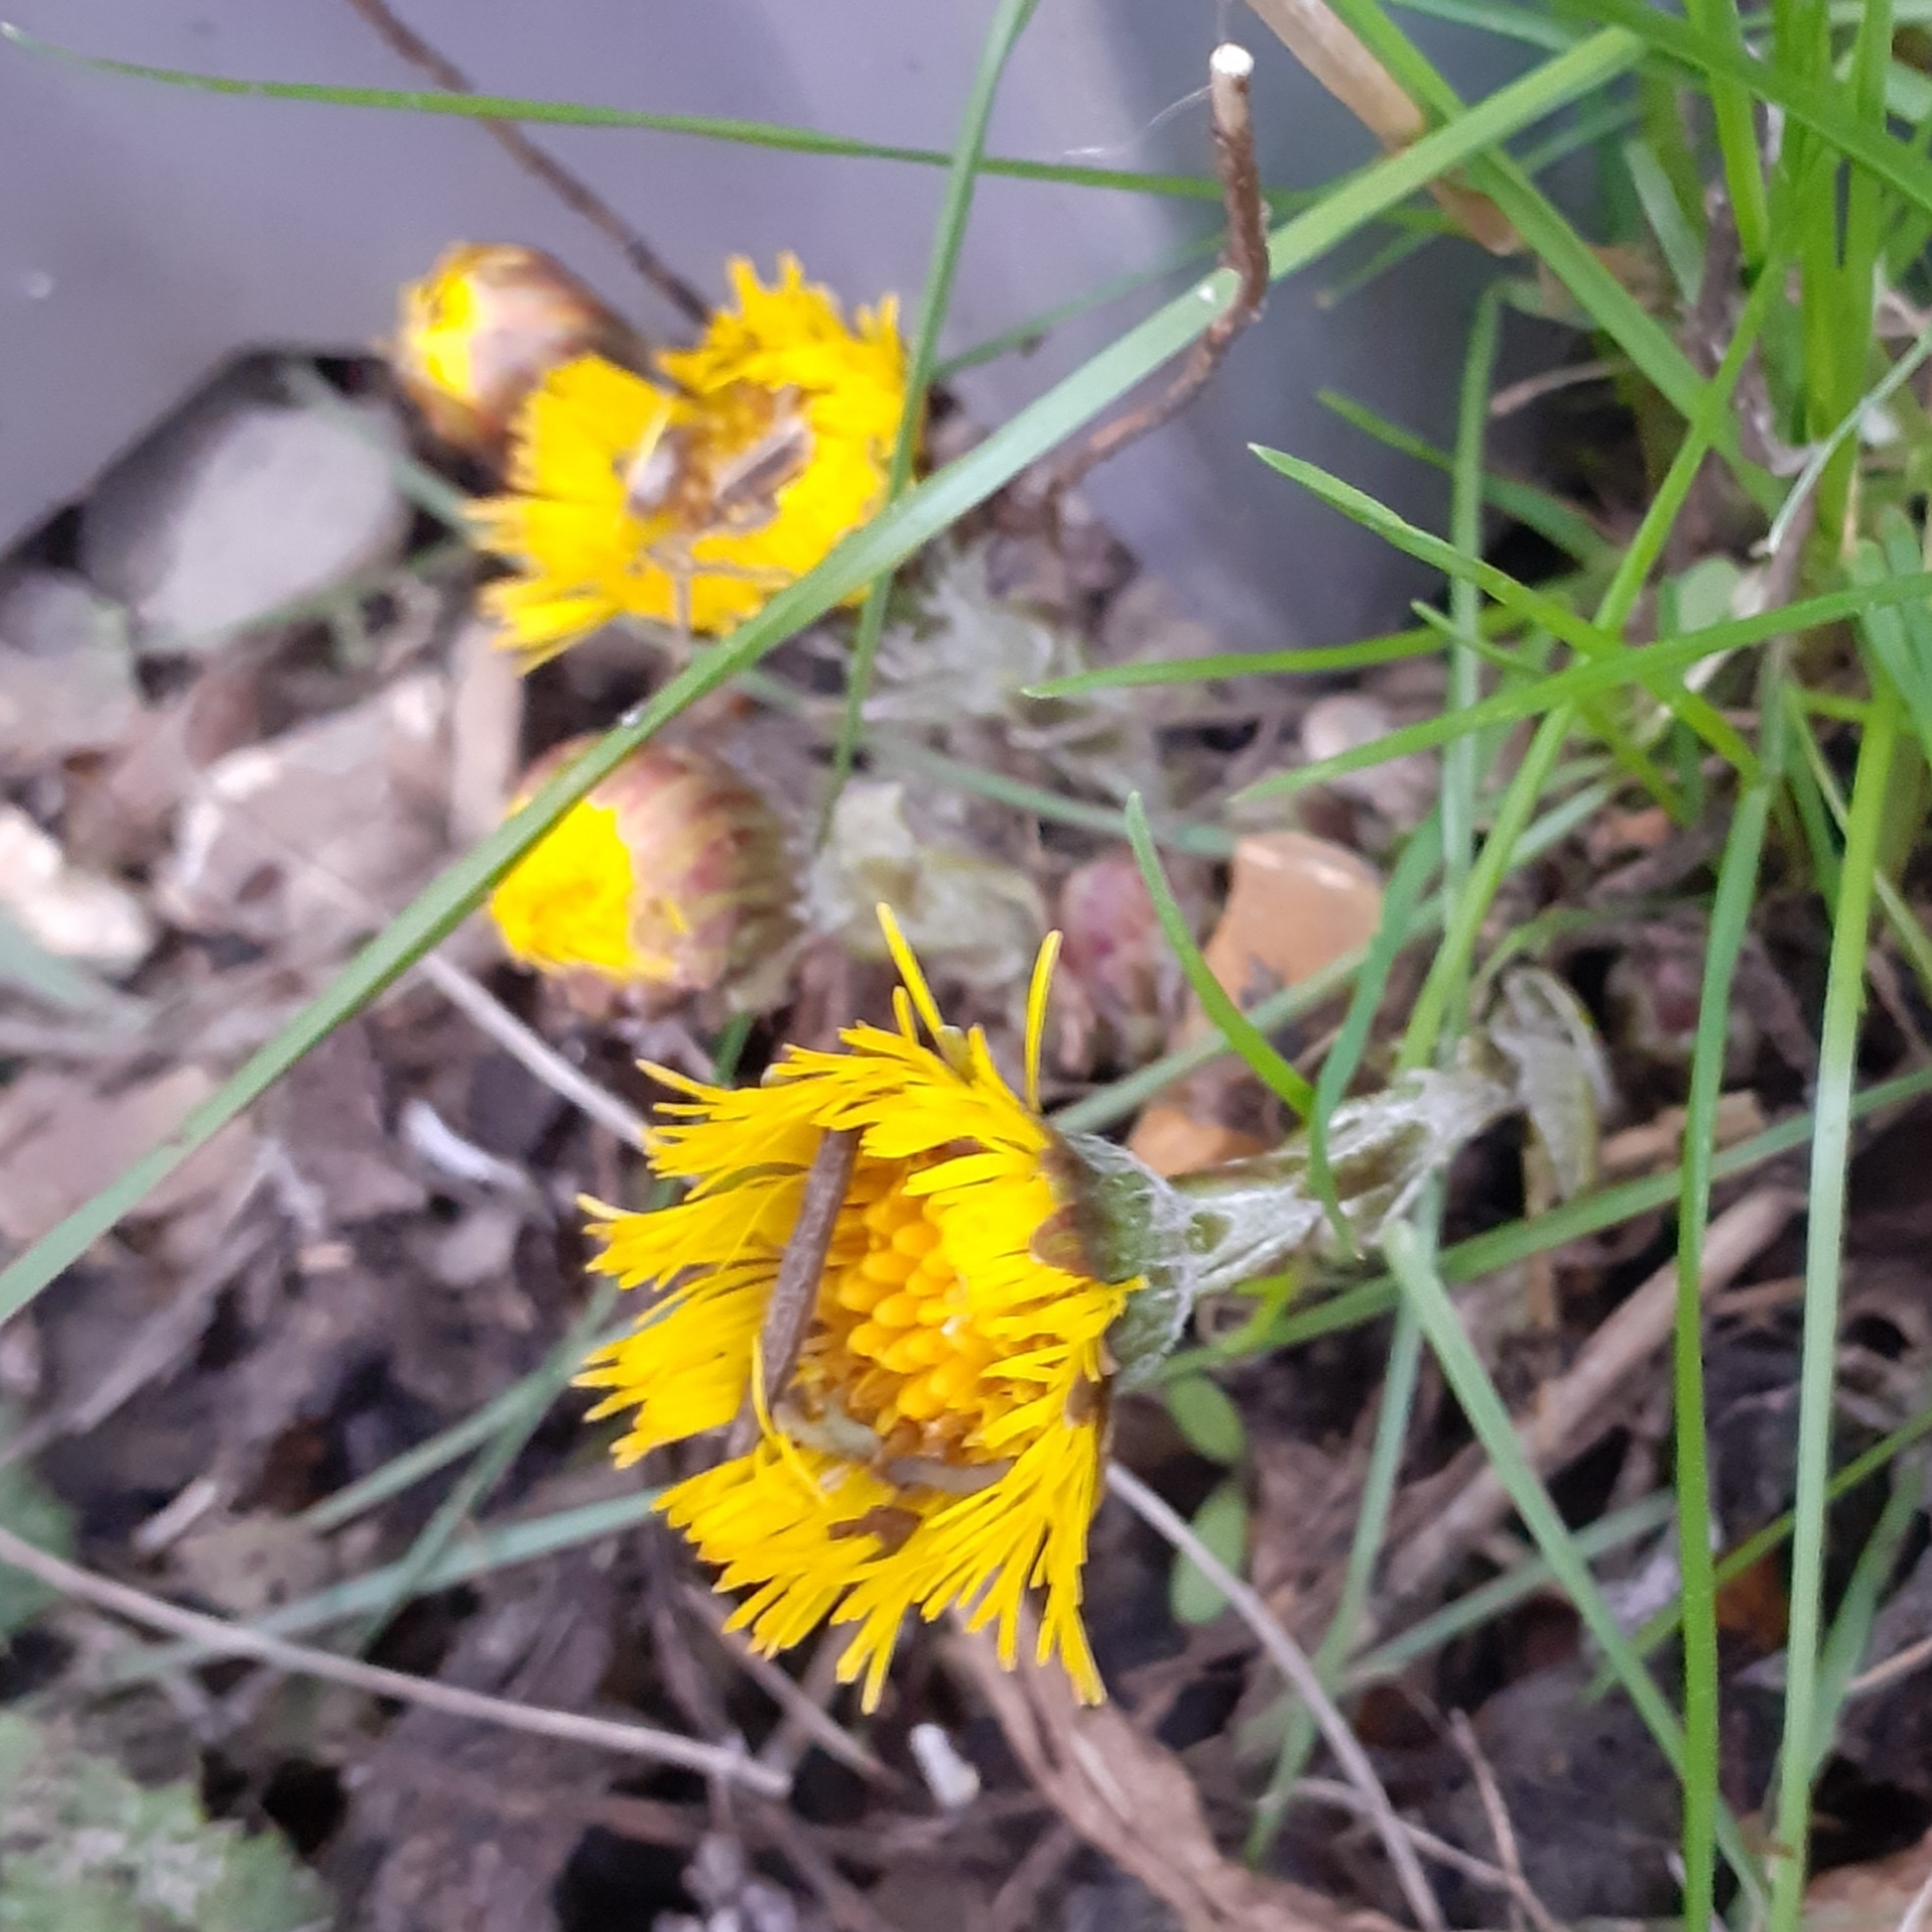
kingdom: Plantae
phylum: Tracheophyta
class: Magnoliopsida
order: Asterales
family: Asteraceae
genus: Tussilago
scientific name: Tussilago farfara
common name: Coltsfoot
